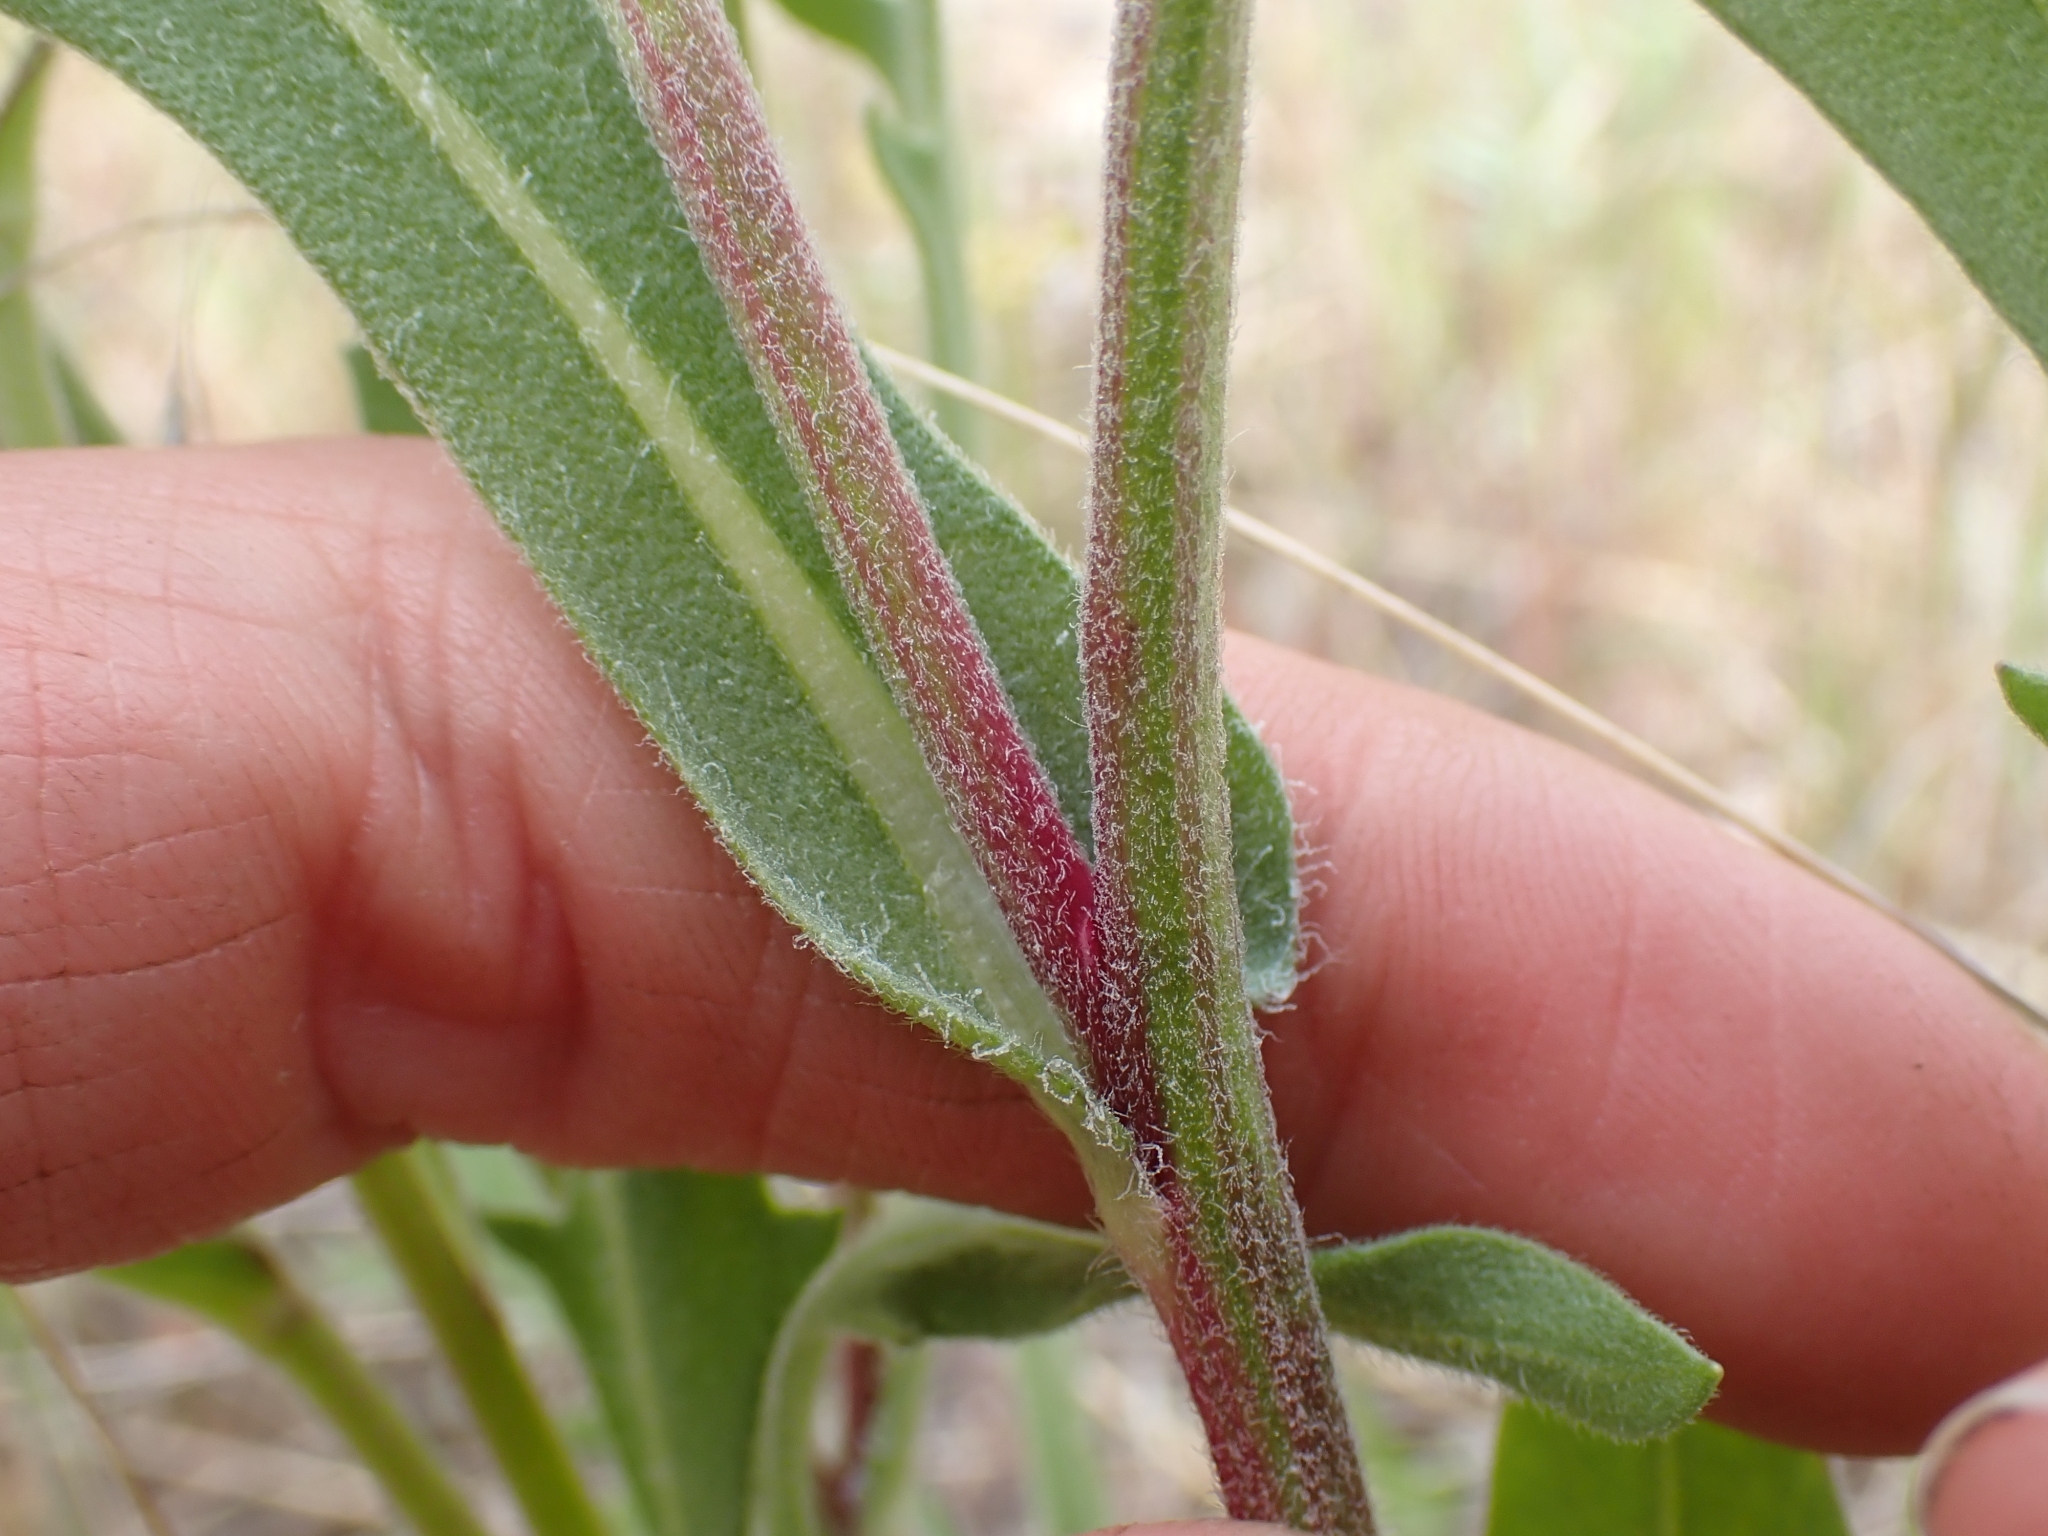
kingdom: Plantae
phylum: Tracheophyta
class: Magnoliopsida
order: Asterales
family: Asteraceae
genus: Gaillardia
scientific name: Gaillardia aristata
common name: Blanket-flower
